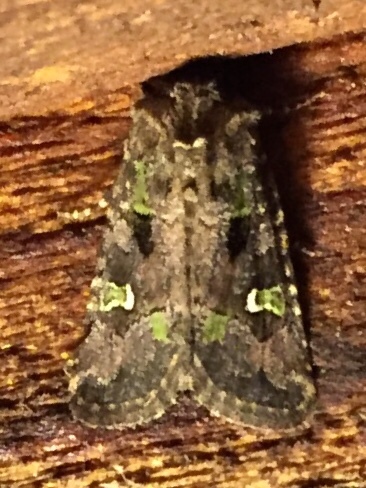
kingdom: Animalia
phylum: Arthropoda
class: Insecta
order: Lepidoptera
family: Noctuidae
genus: Lacinipolia
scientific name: Lacinipolia renigera
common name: Kidney-spotted minor
